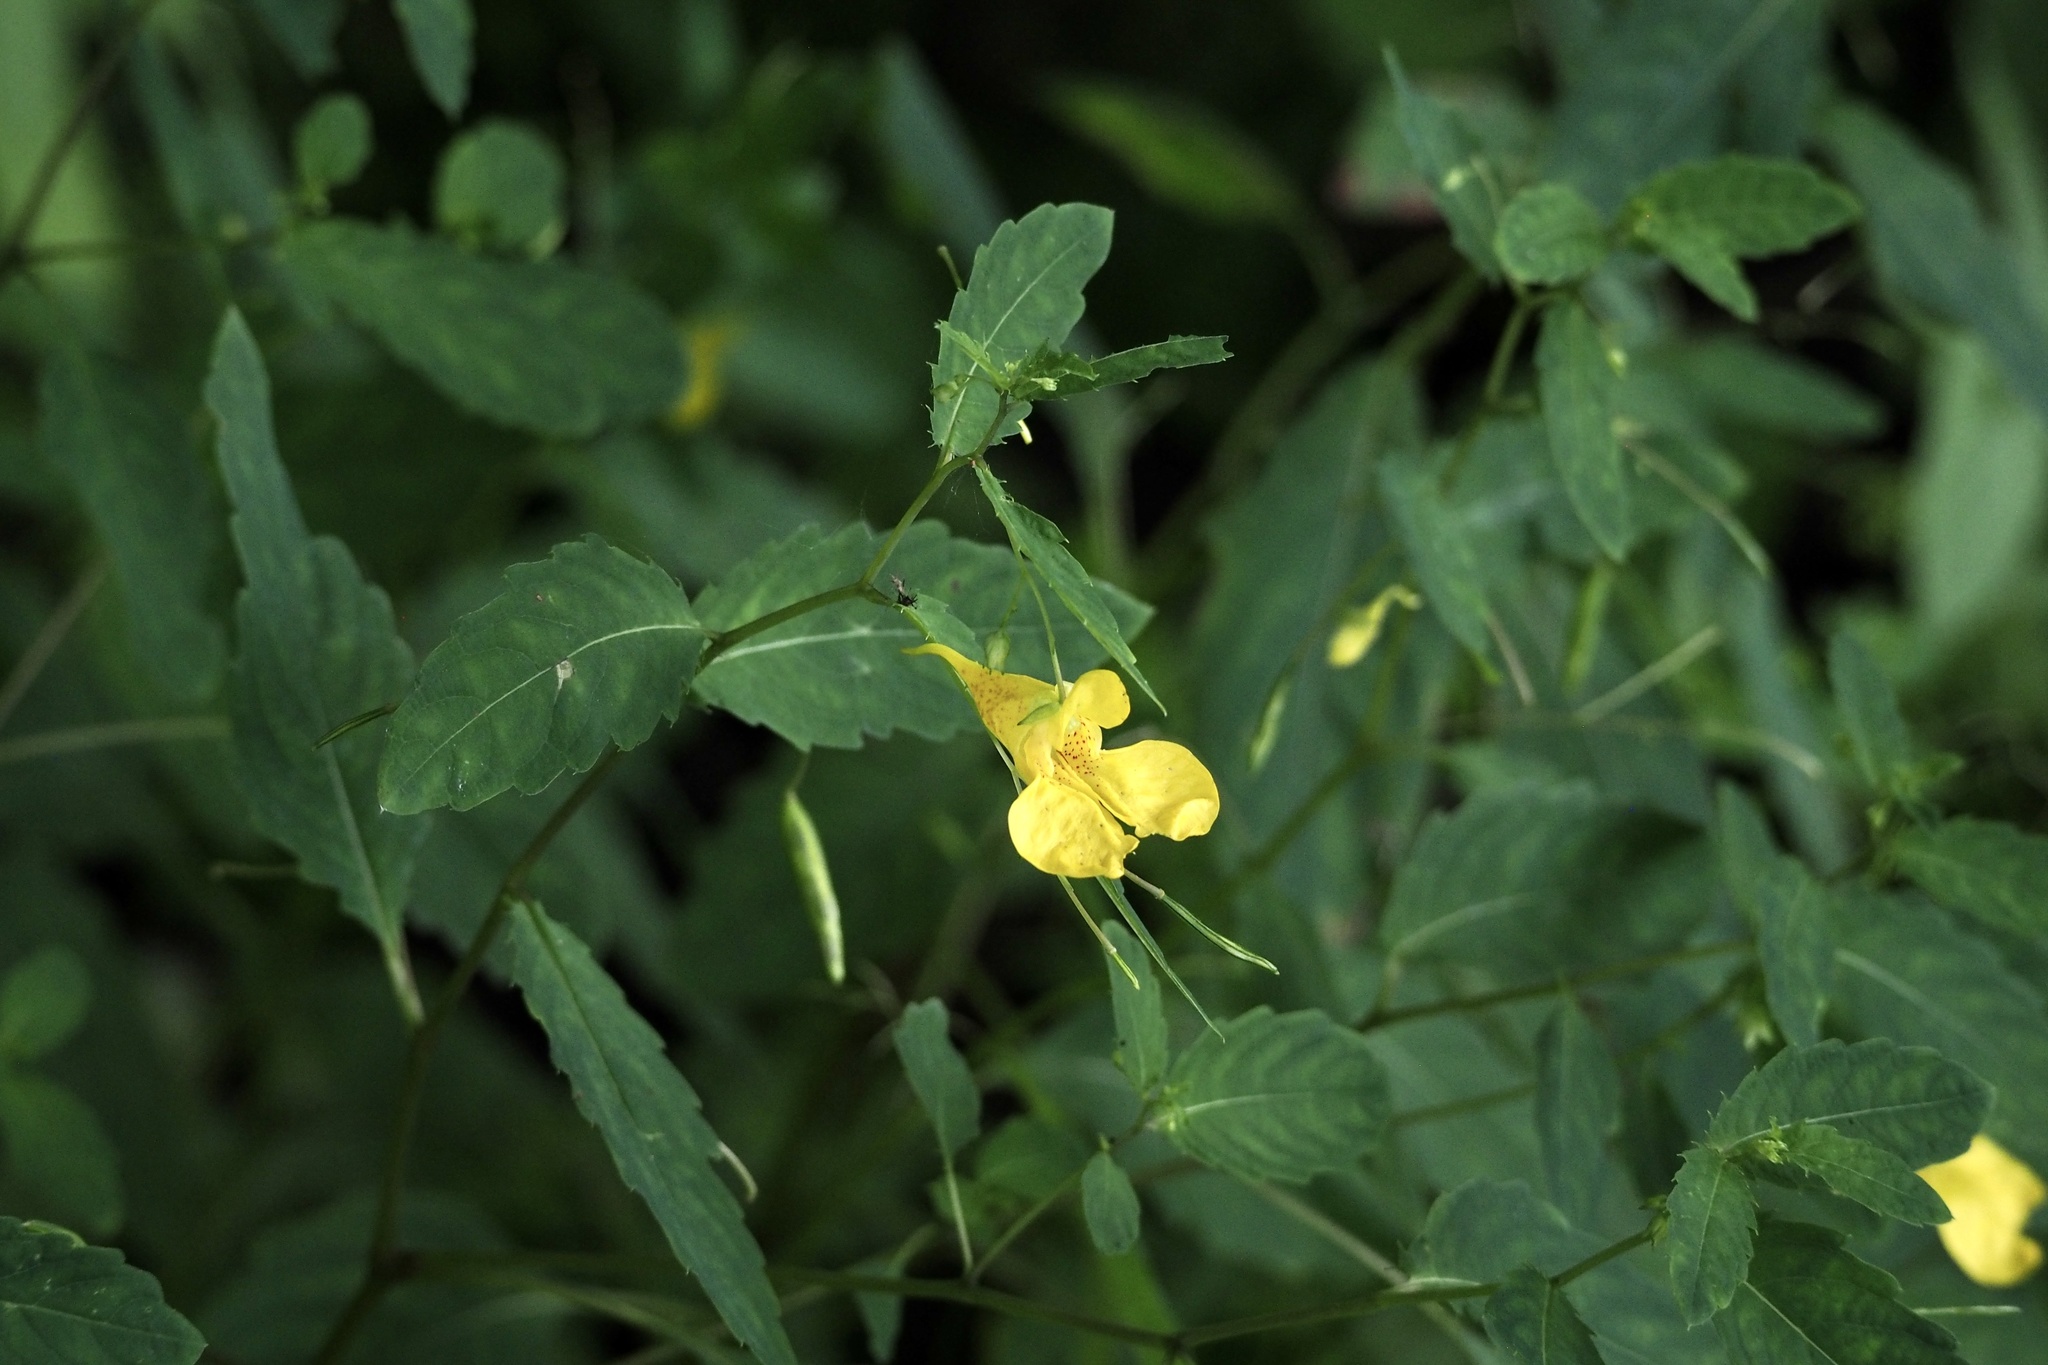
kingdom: Plantae
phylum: Tracheophyta
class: Magnoliopsida
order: Ericales
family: Balsaminaceae
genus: Impatiens
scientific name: Impatiens noli-tangere
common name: Touch-me-not balsam
